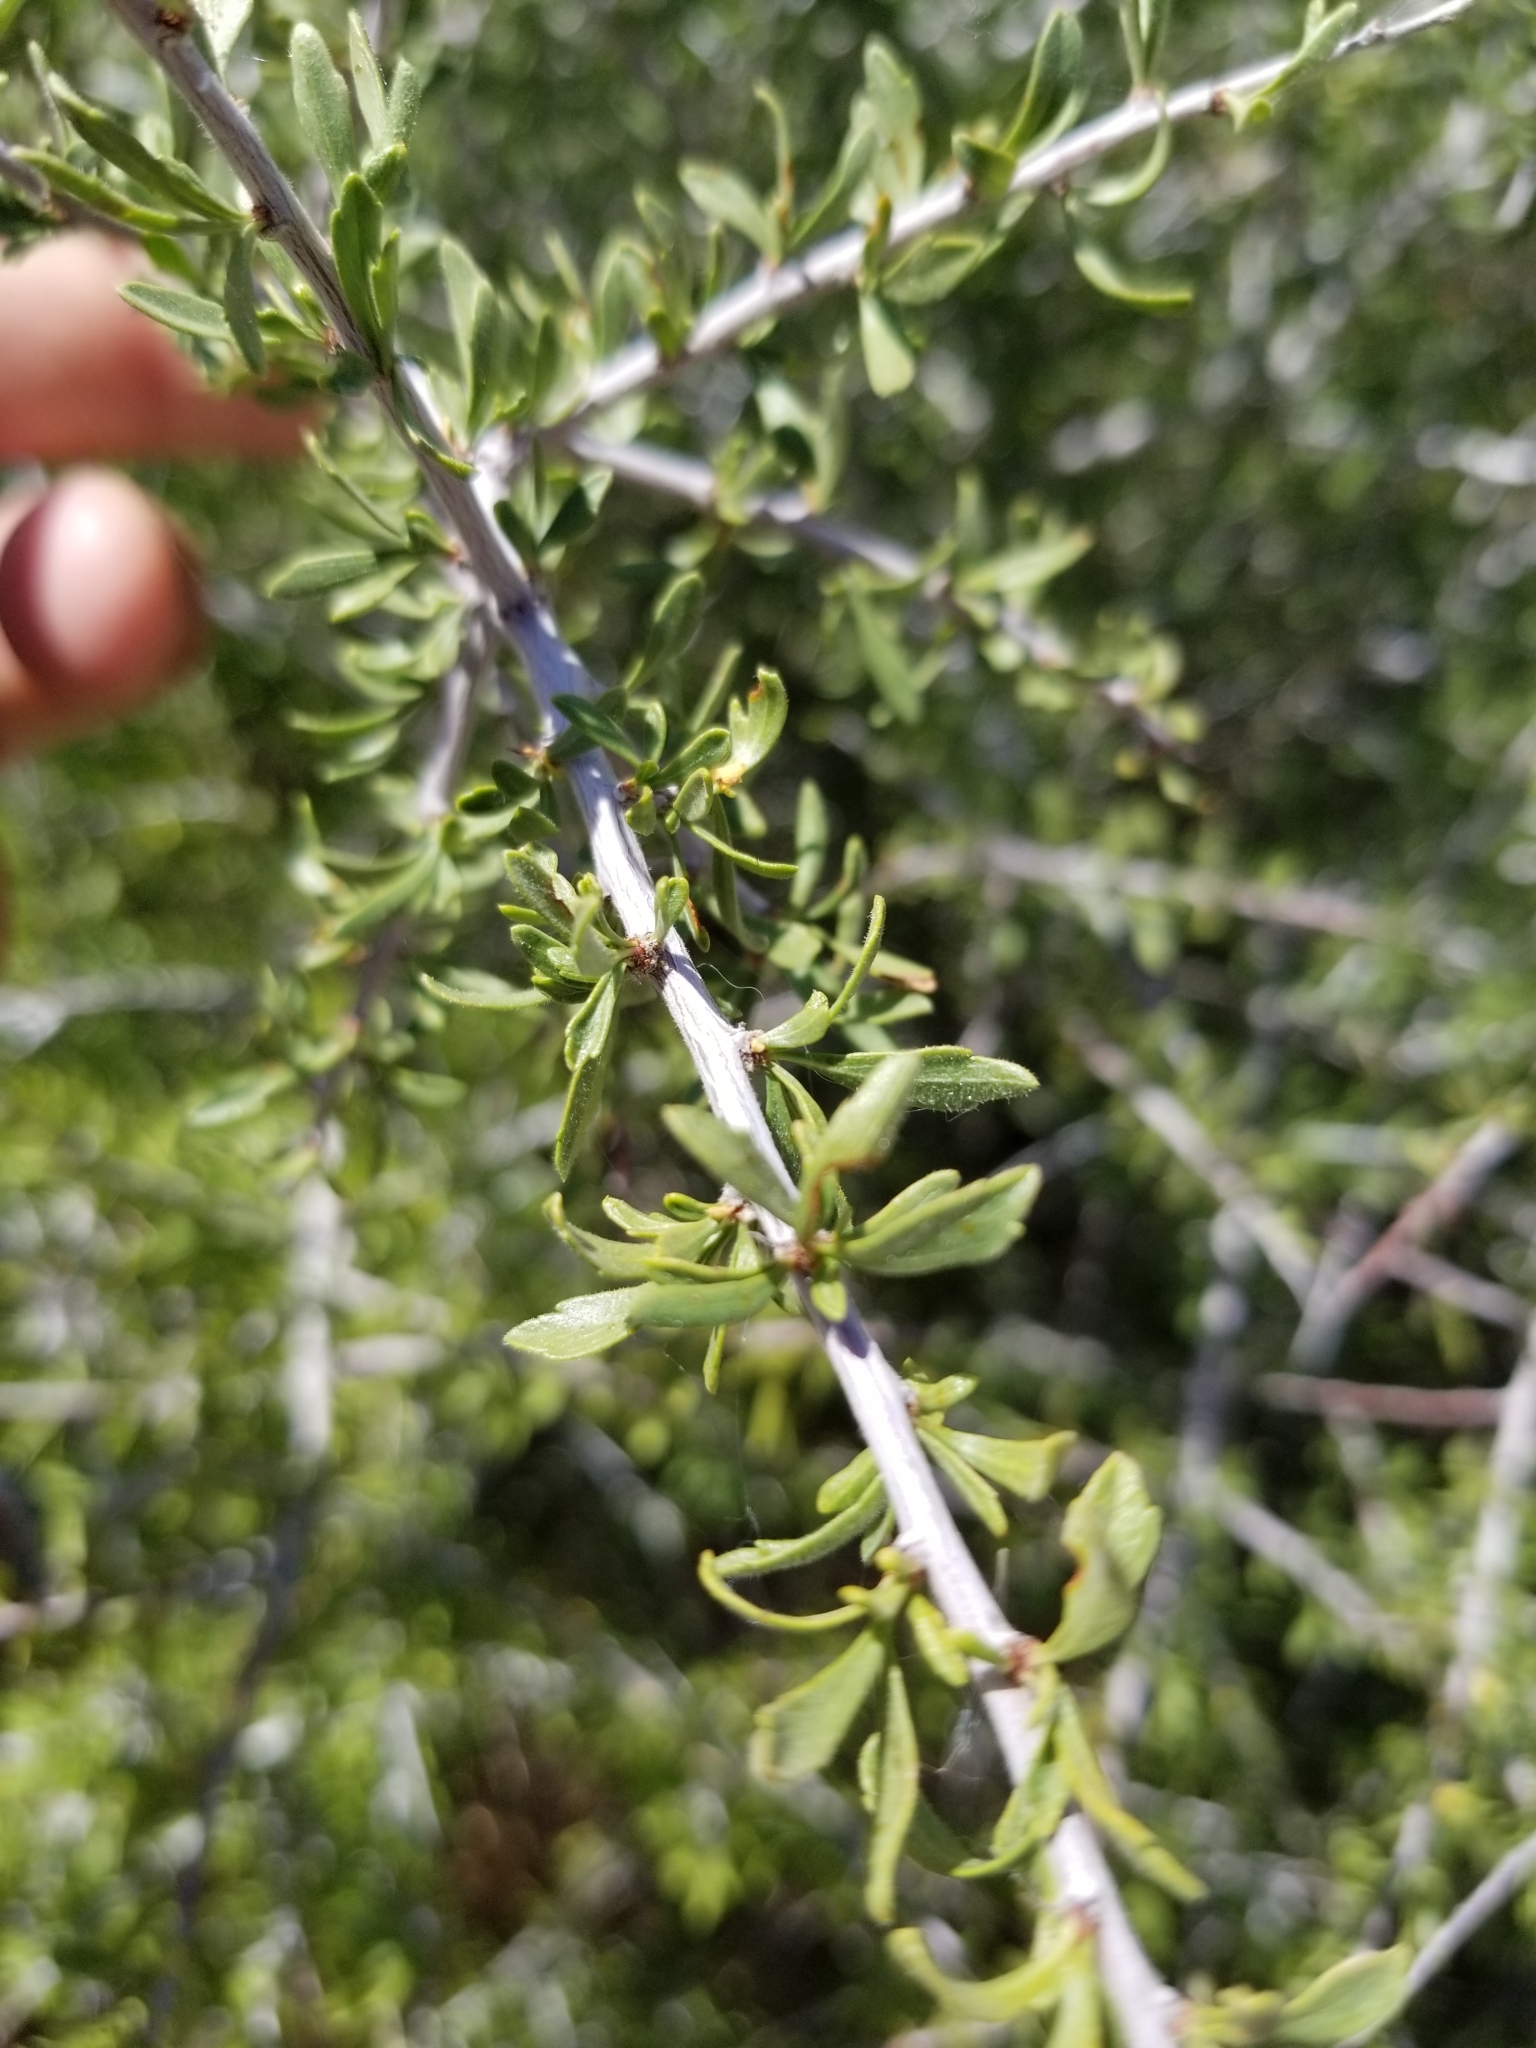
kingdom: Plantae
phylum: Tracheophyta
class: Magnoliopsida
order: Rosales
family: Rosaceae
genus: Prunus
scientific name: Prunus fasciculata
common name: Desert almond
